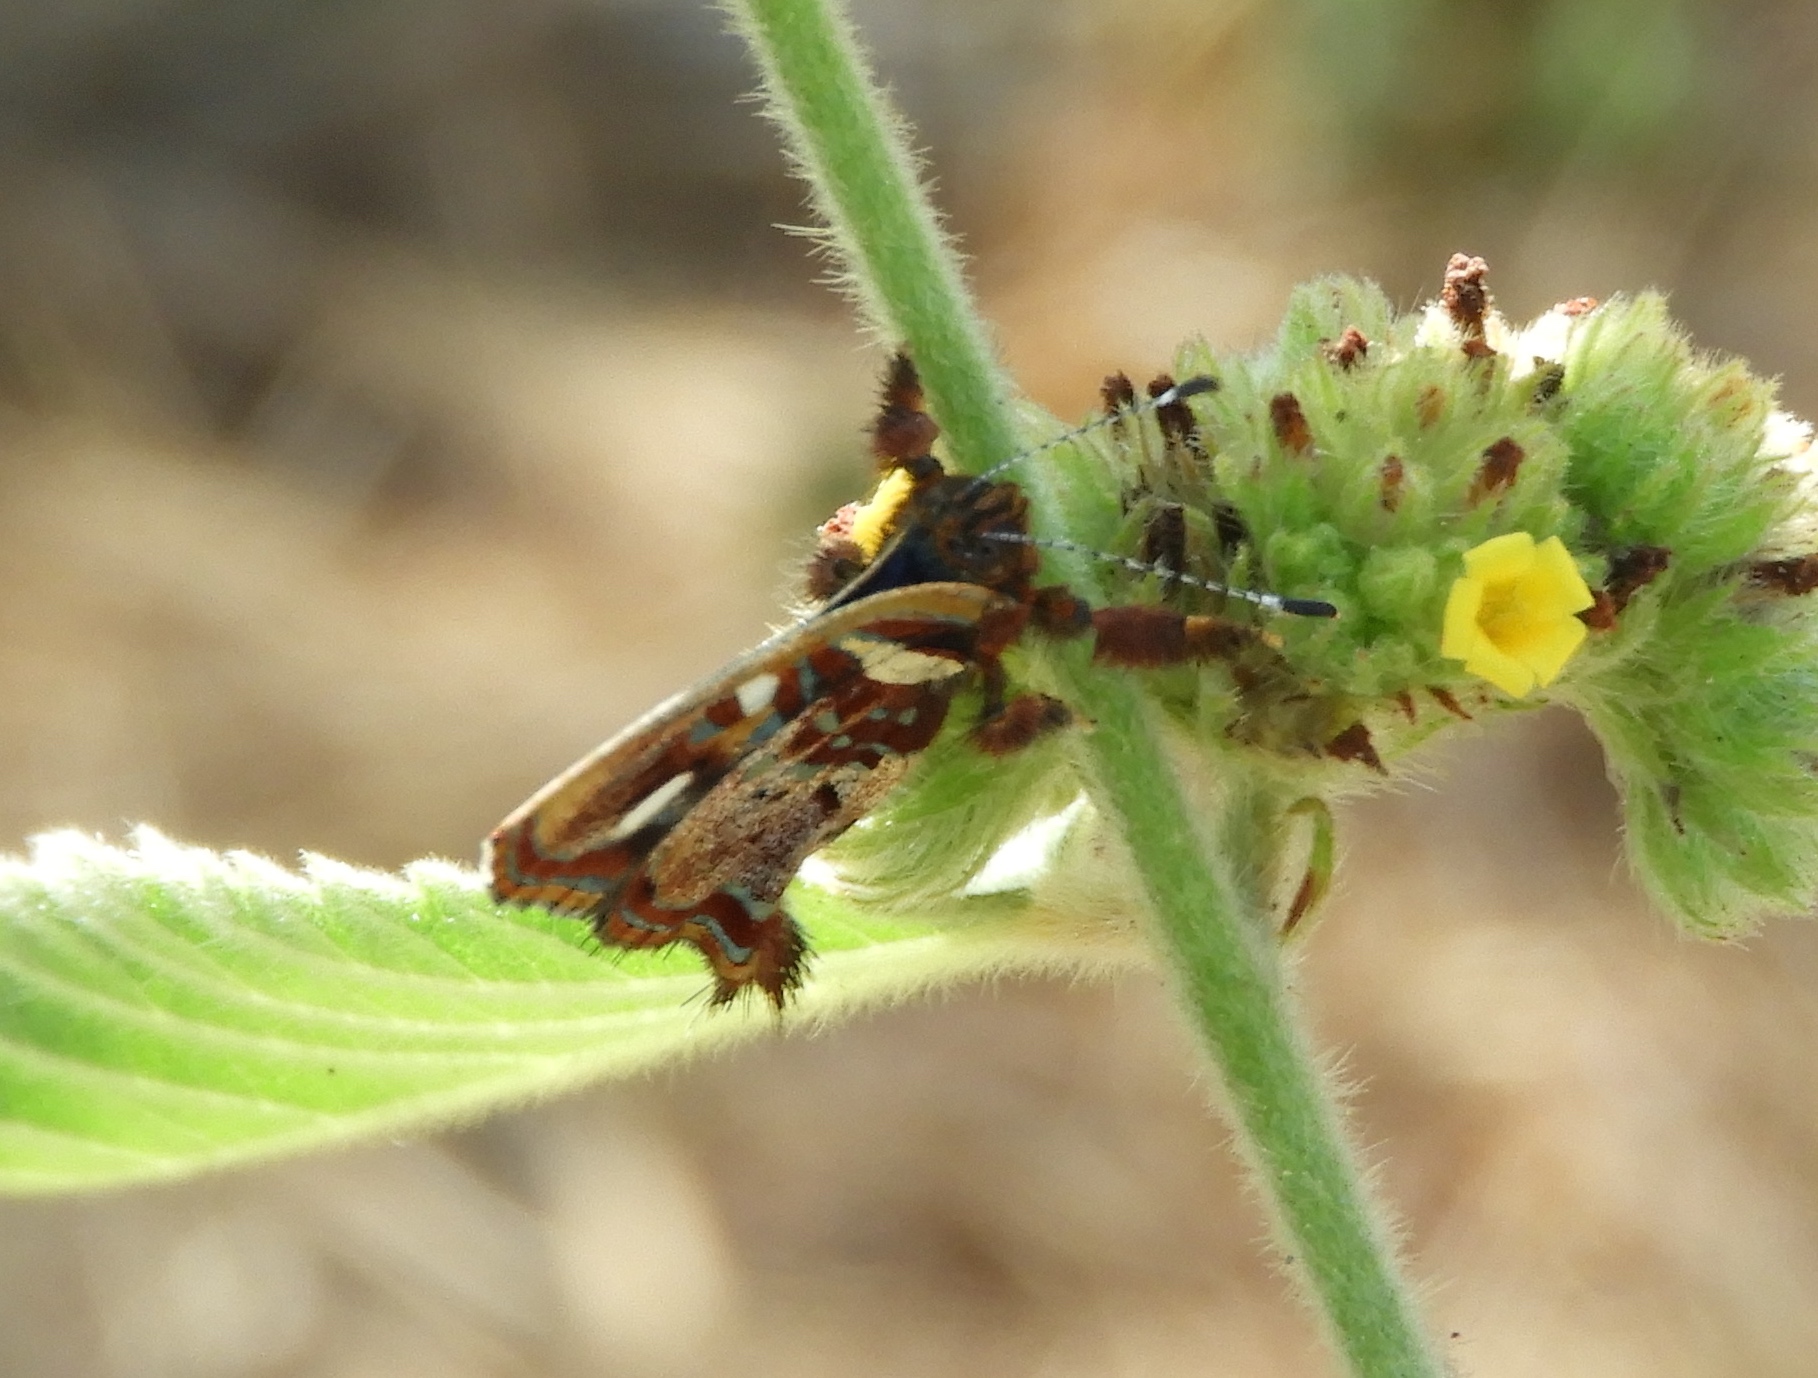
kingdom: Animalia
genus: Anteros
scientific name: Anteros carausius
